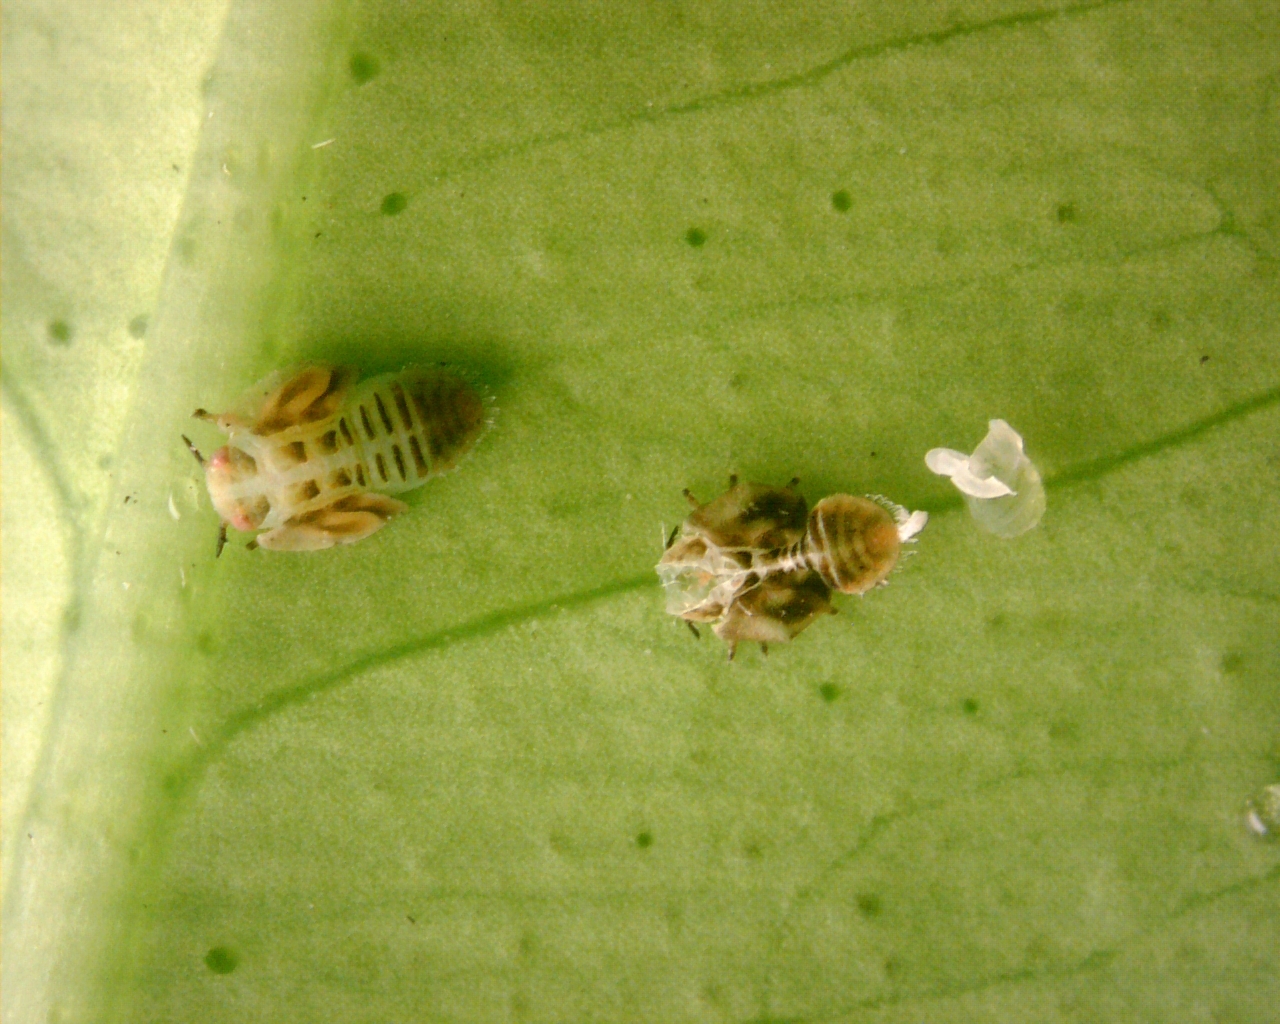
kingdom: Animalia
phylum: Arthropoda
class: Insecta
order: Hemiptera
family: Liviidae
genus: Diaphorina
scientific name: Diaphorina citri
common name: Asian citrus psyllid
